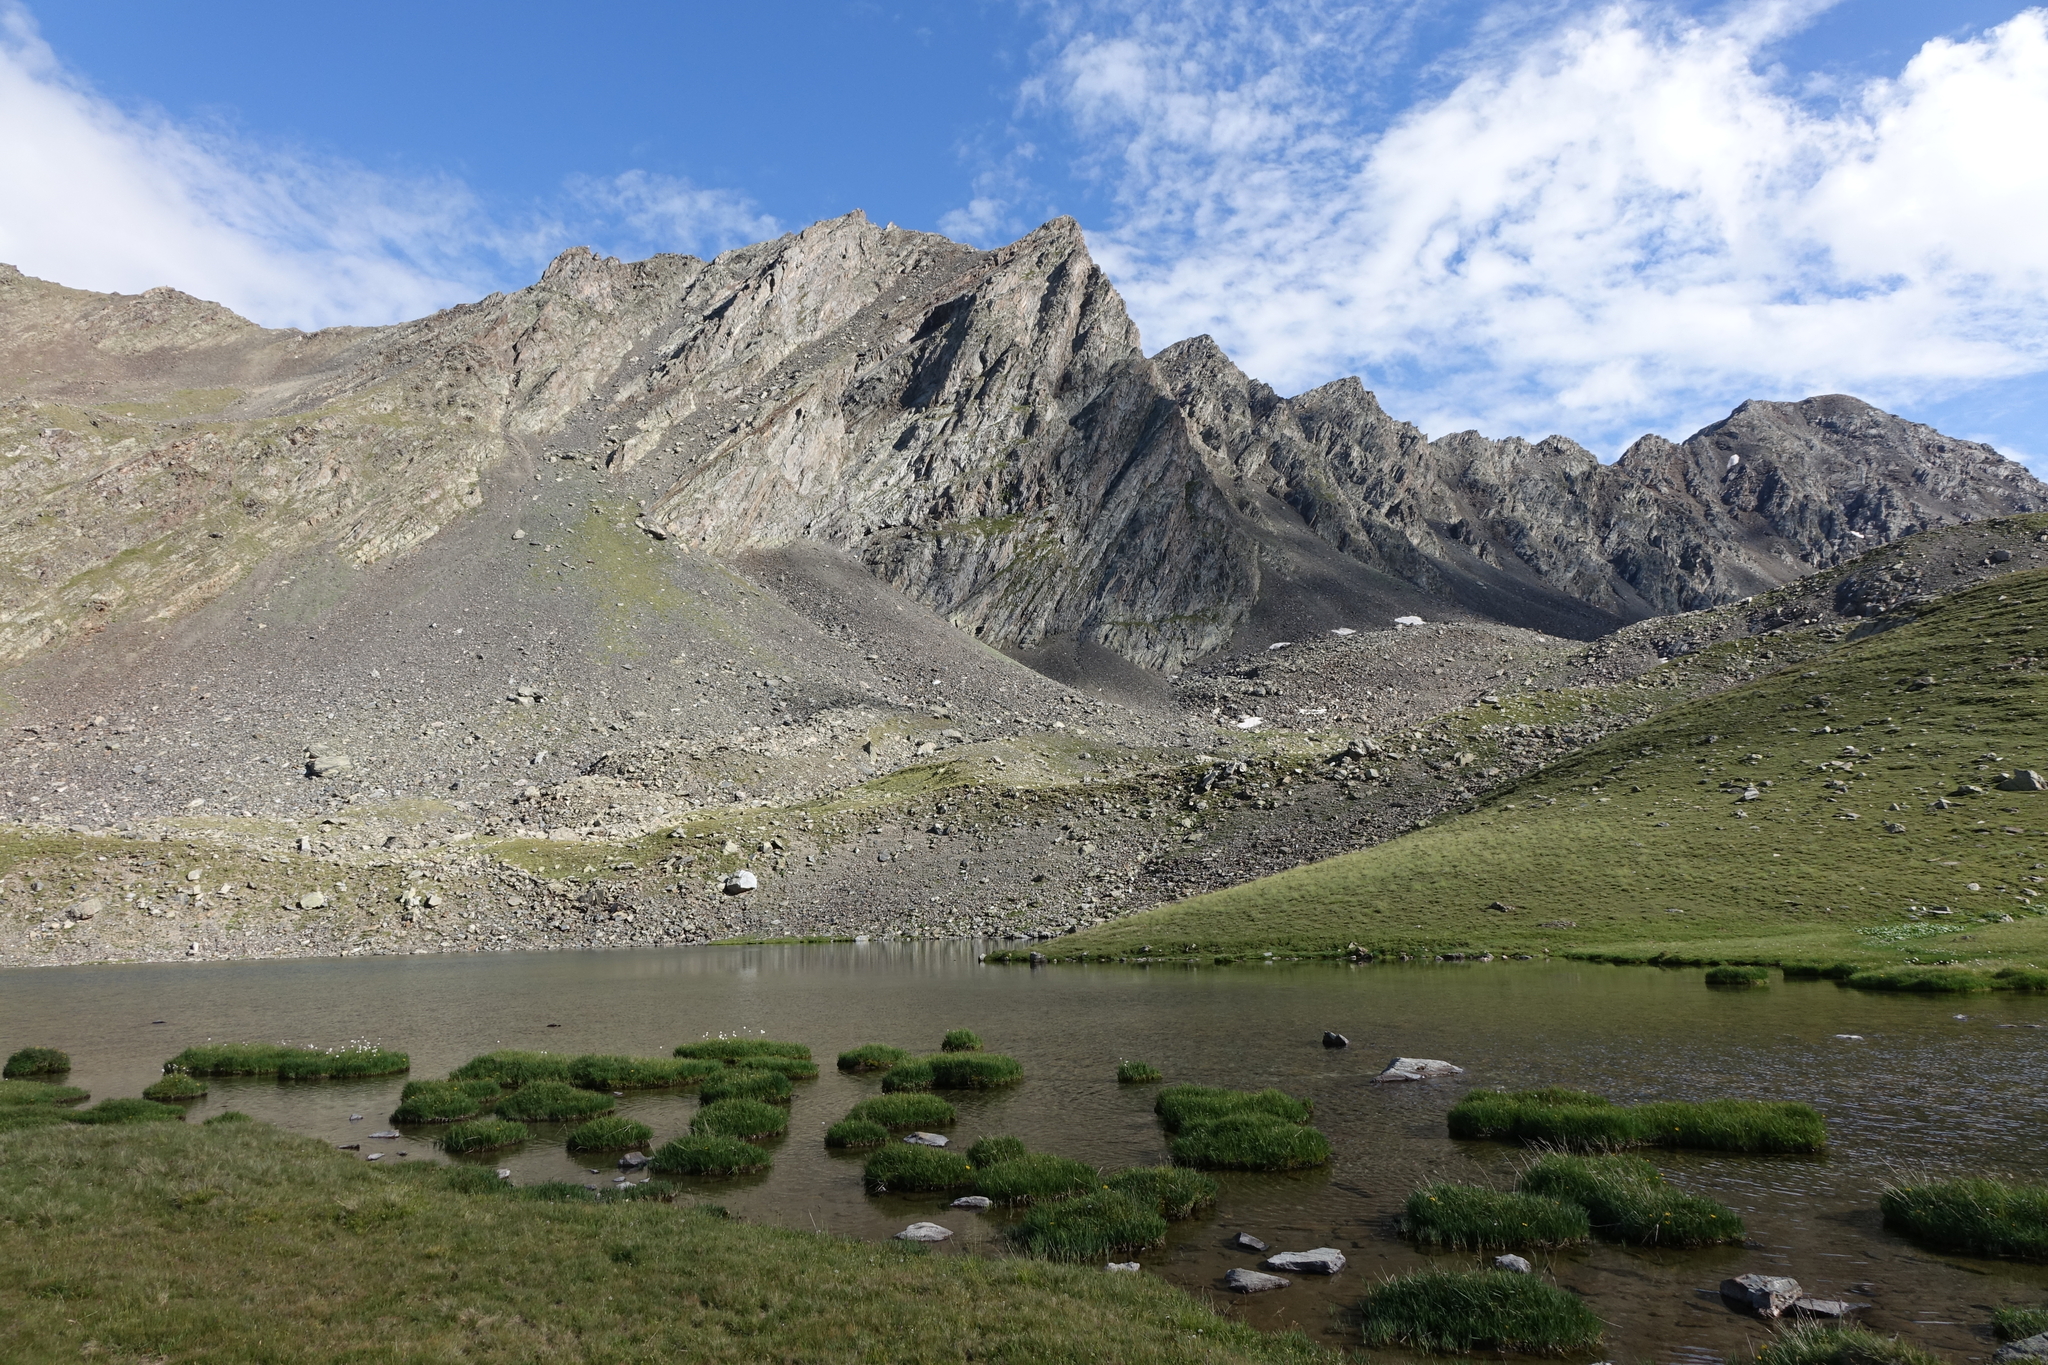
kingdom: Plantae
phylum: Tracheophyta
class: Liliopsida
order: Poales
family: Cyperaceae
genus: Eriophorum
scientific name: Eriophorum vaginatum
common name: Hare's-tail cottongrass
